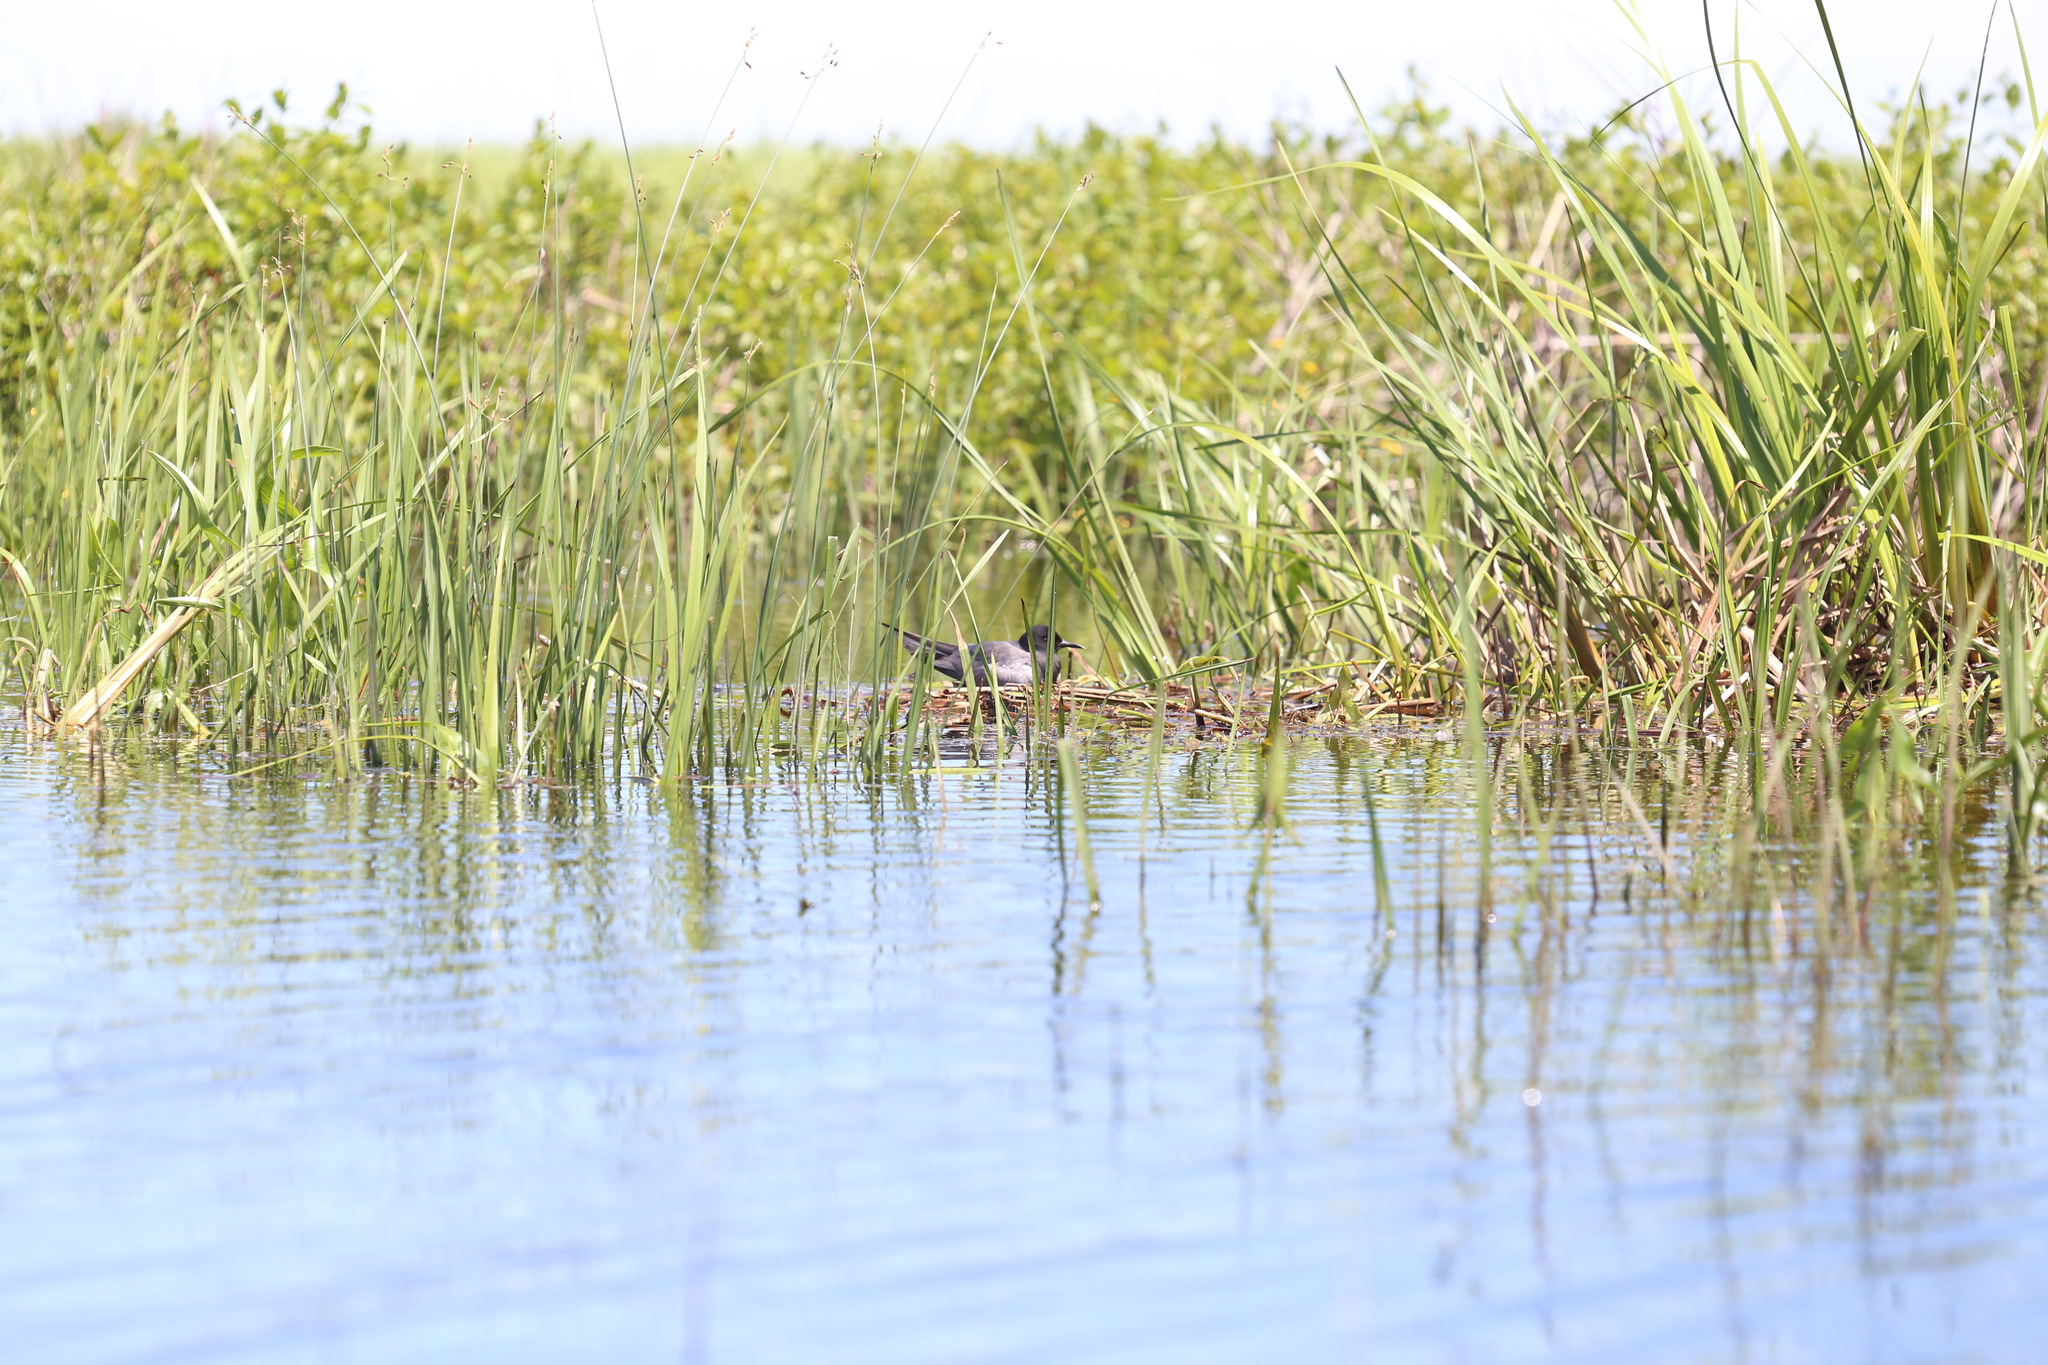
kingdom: Animalia
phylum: Chordata
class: Aves
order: Charadriiformes
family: Laridae
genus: Chlidonias
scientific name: Chlidonias niger
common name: Black tern
